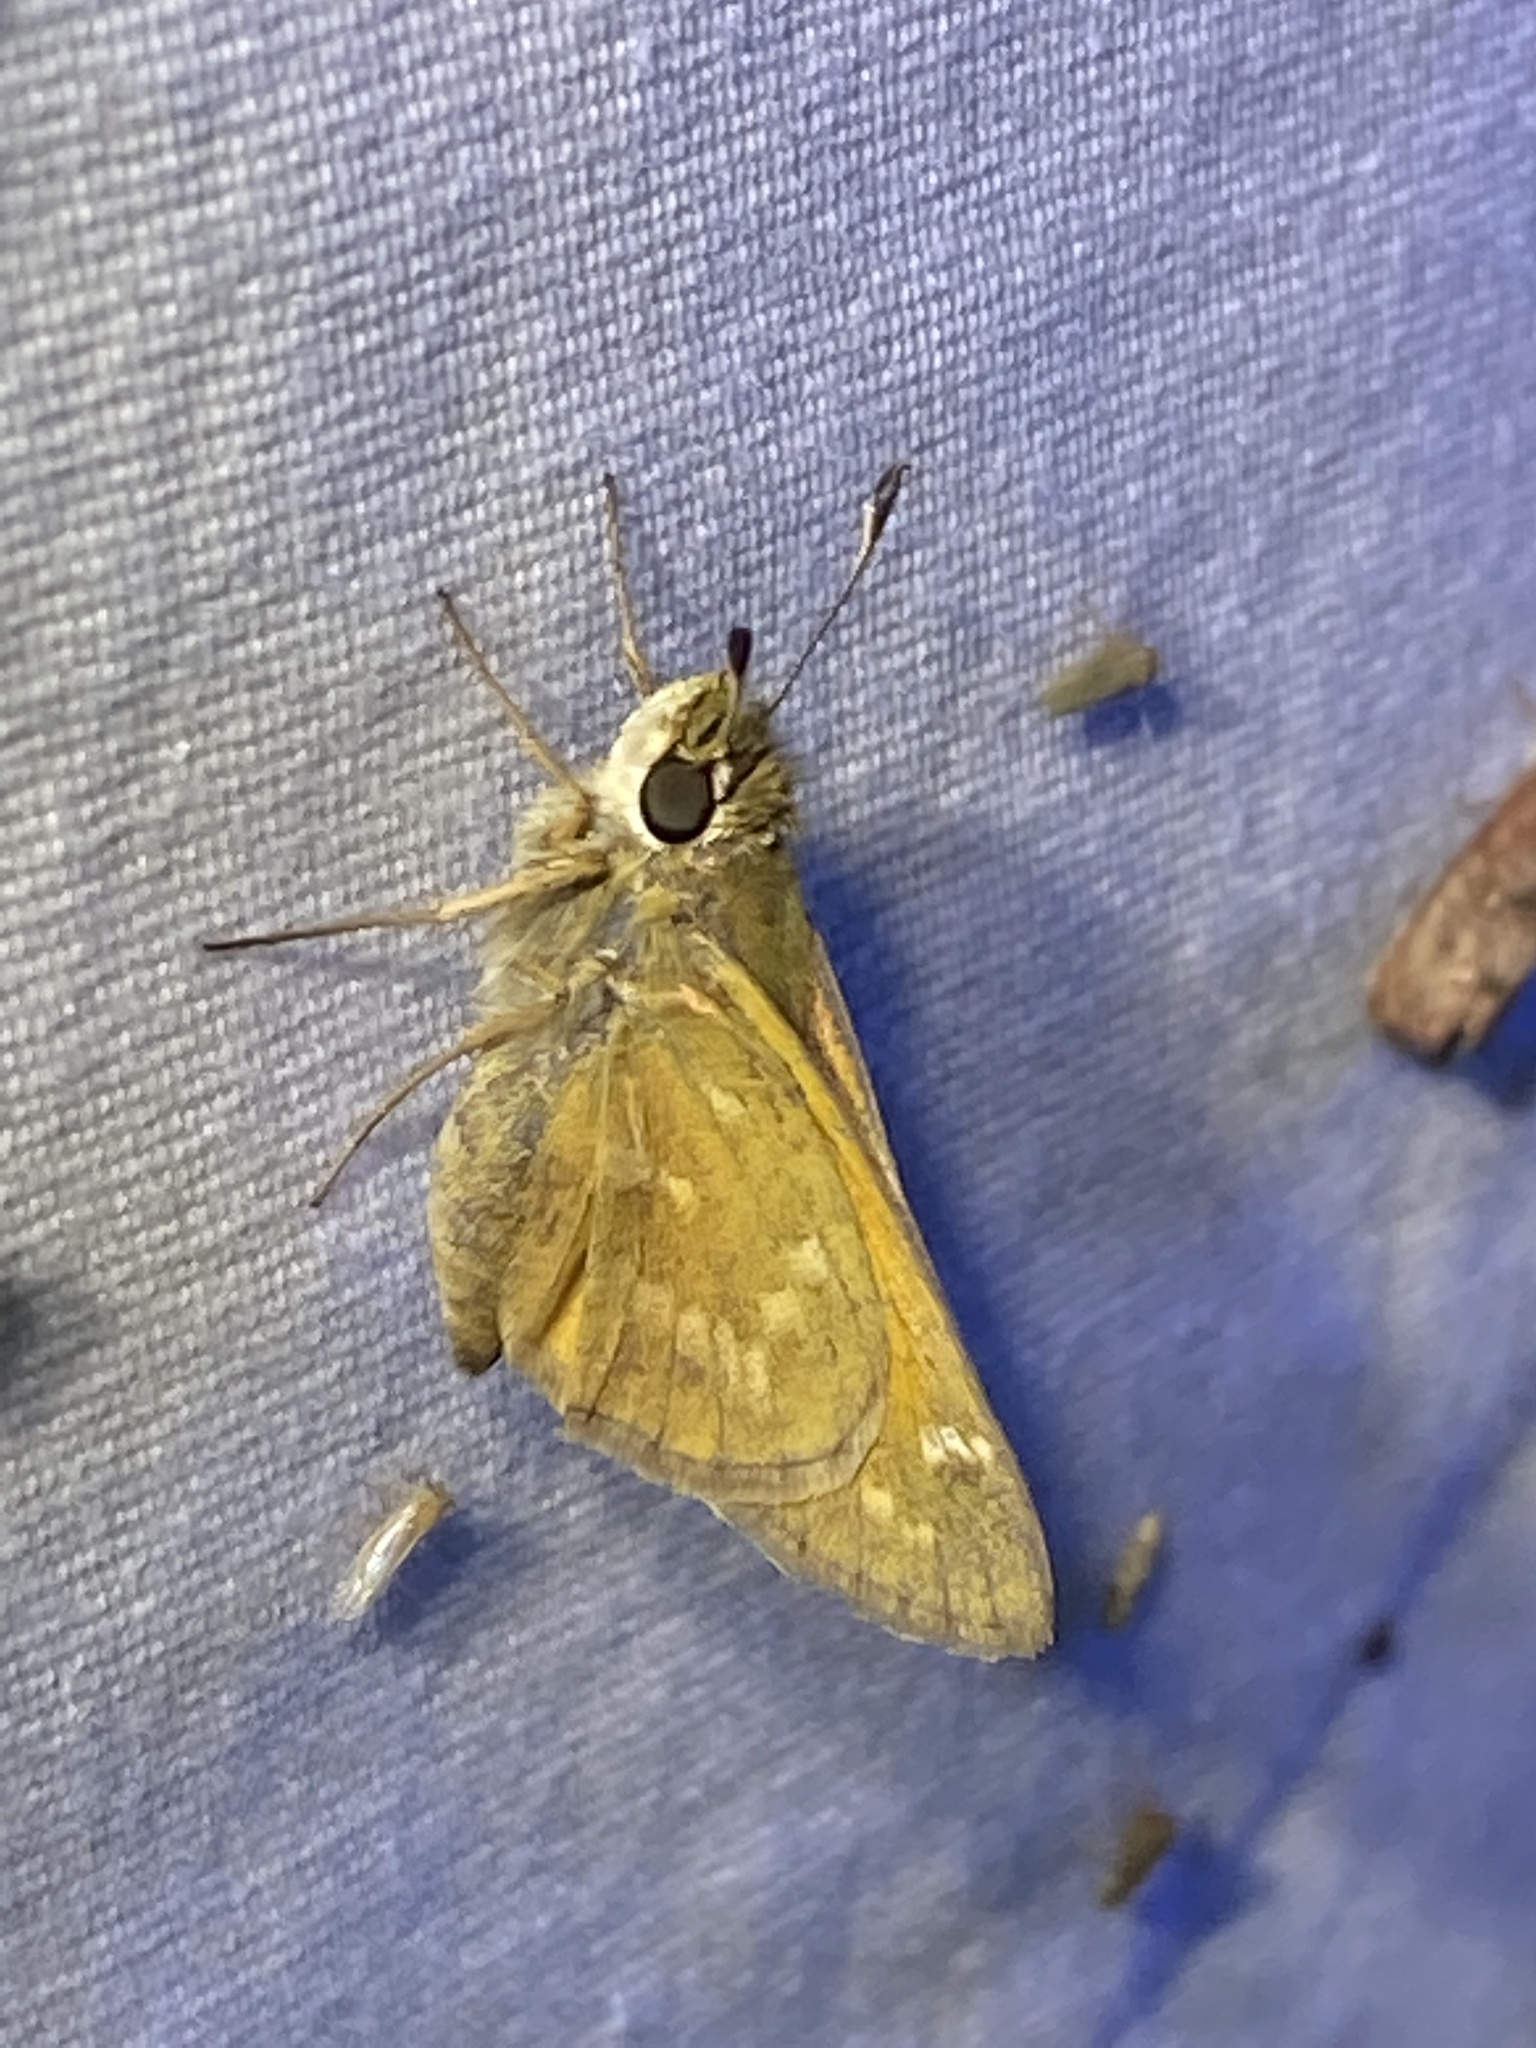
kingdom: Animalia
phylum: Arthropoda
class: Insecta
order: Lepidoptera
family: Hesperiidae
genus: Atalopedes
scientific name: Atalopedes
